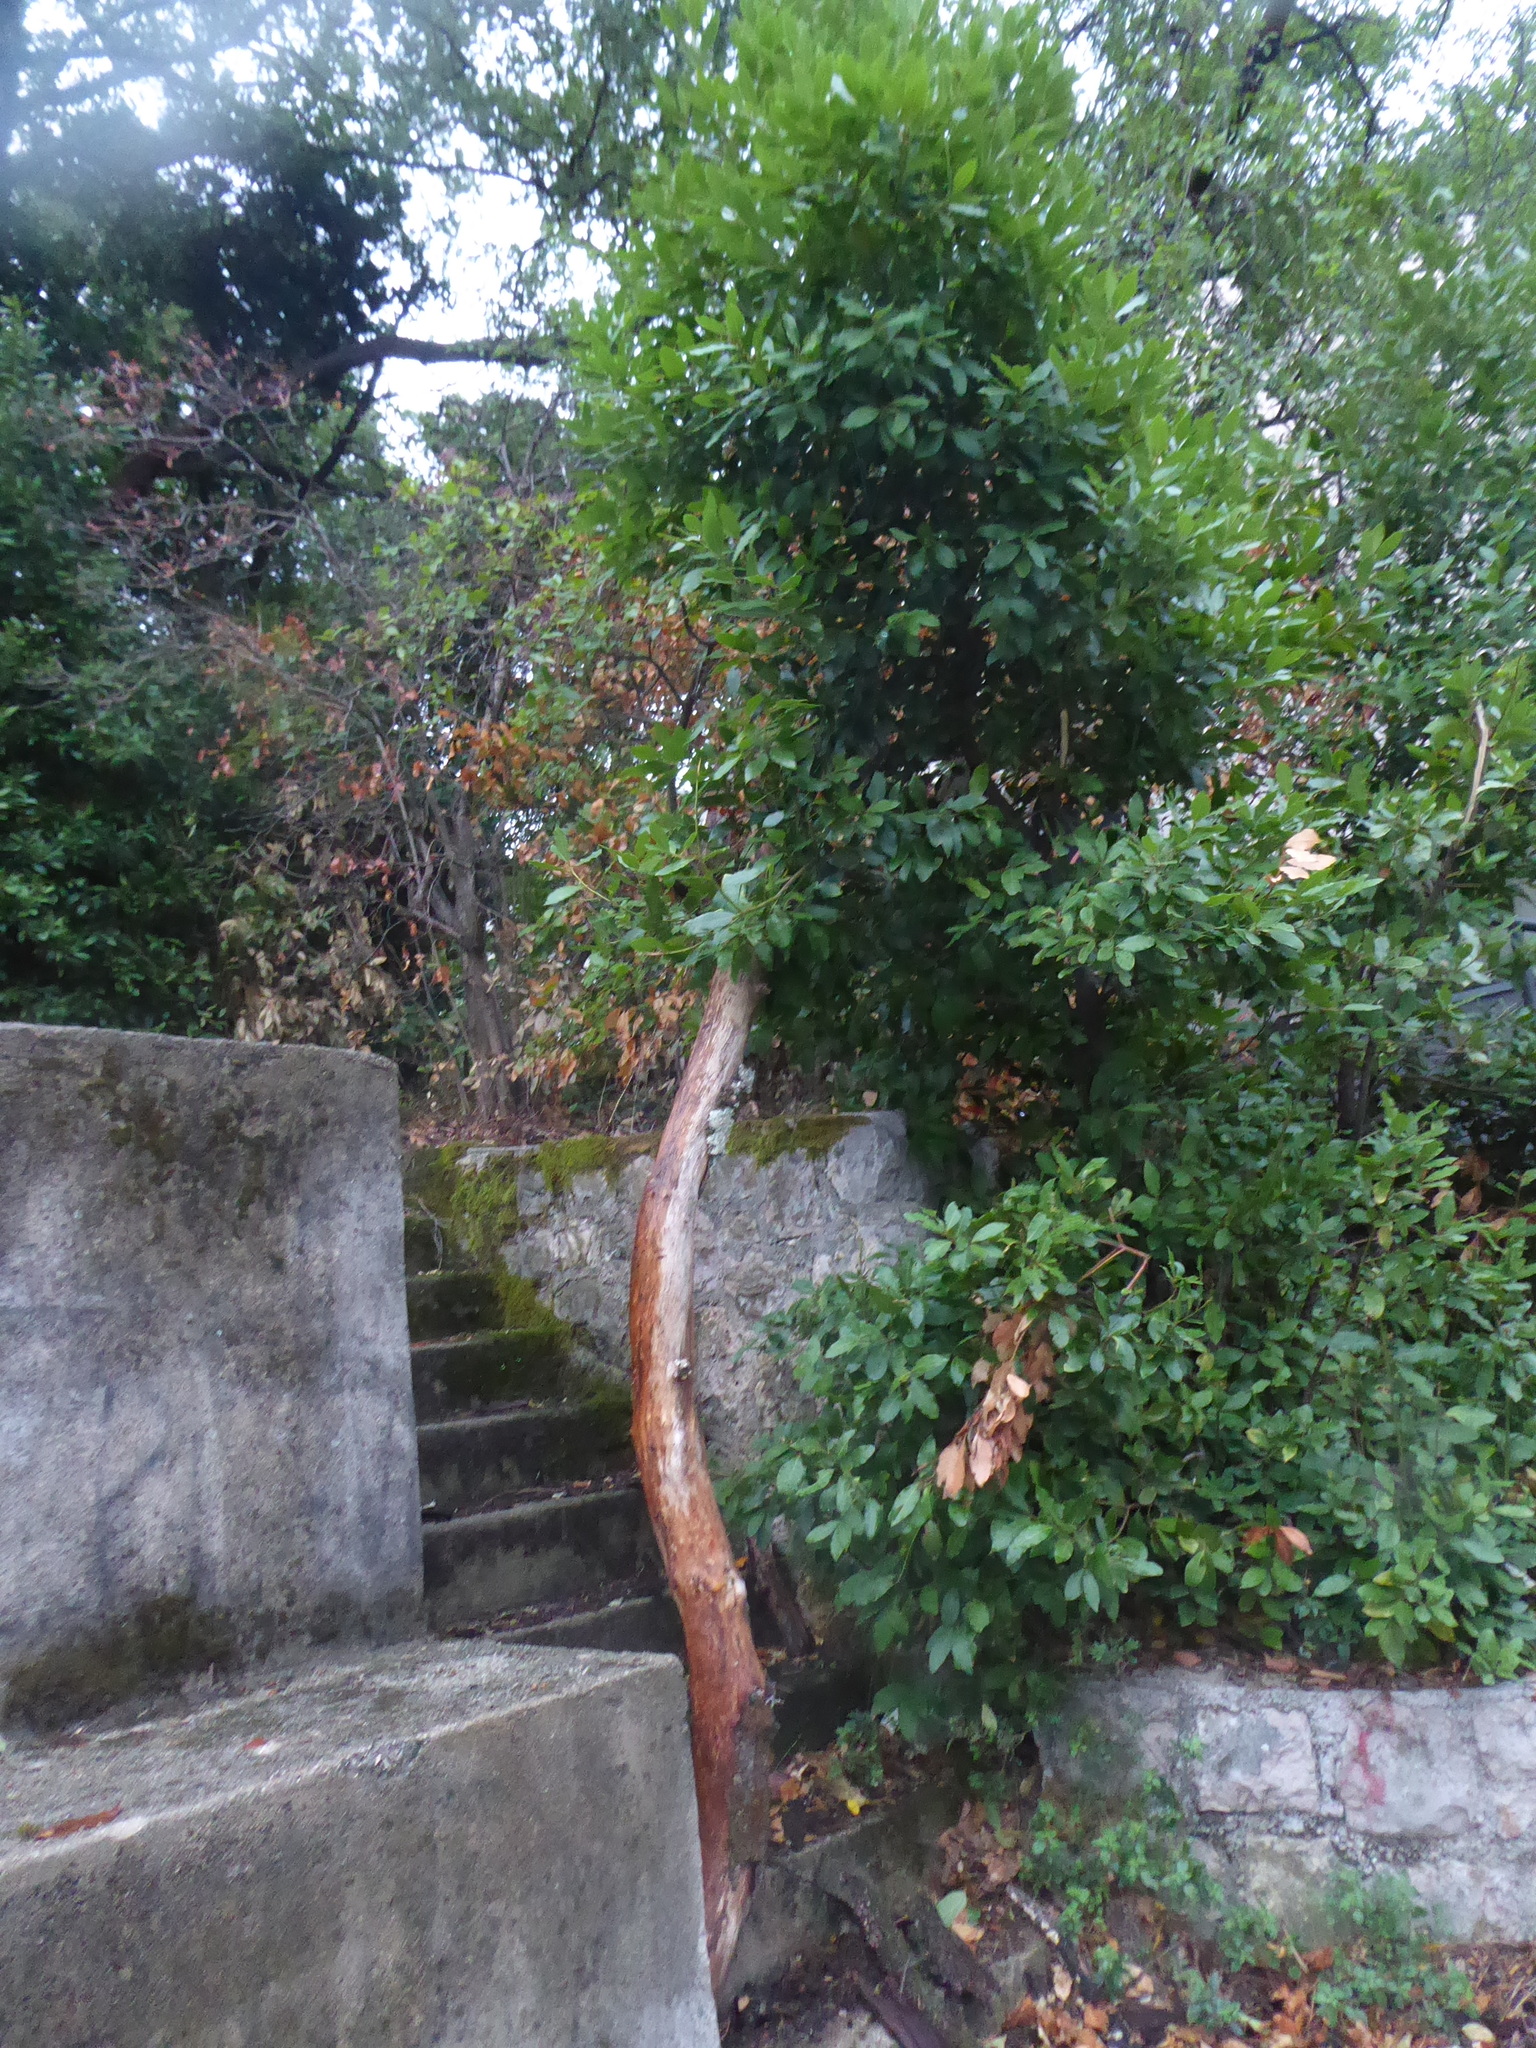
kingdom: Plantae
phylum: Tracheophyta
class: Magnoliopsida
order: Laurales
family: Lauraceae
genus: Laurus
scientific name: Laurus nobilis
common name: Bay
